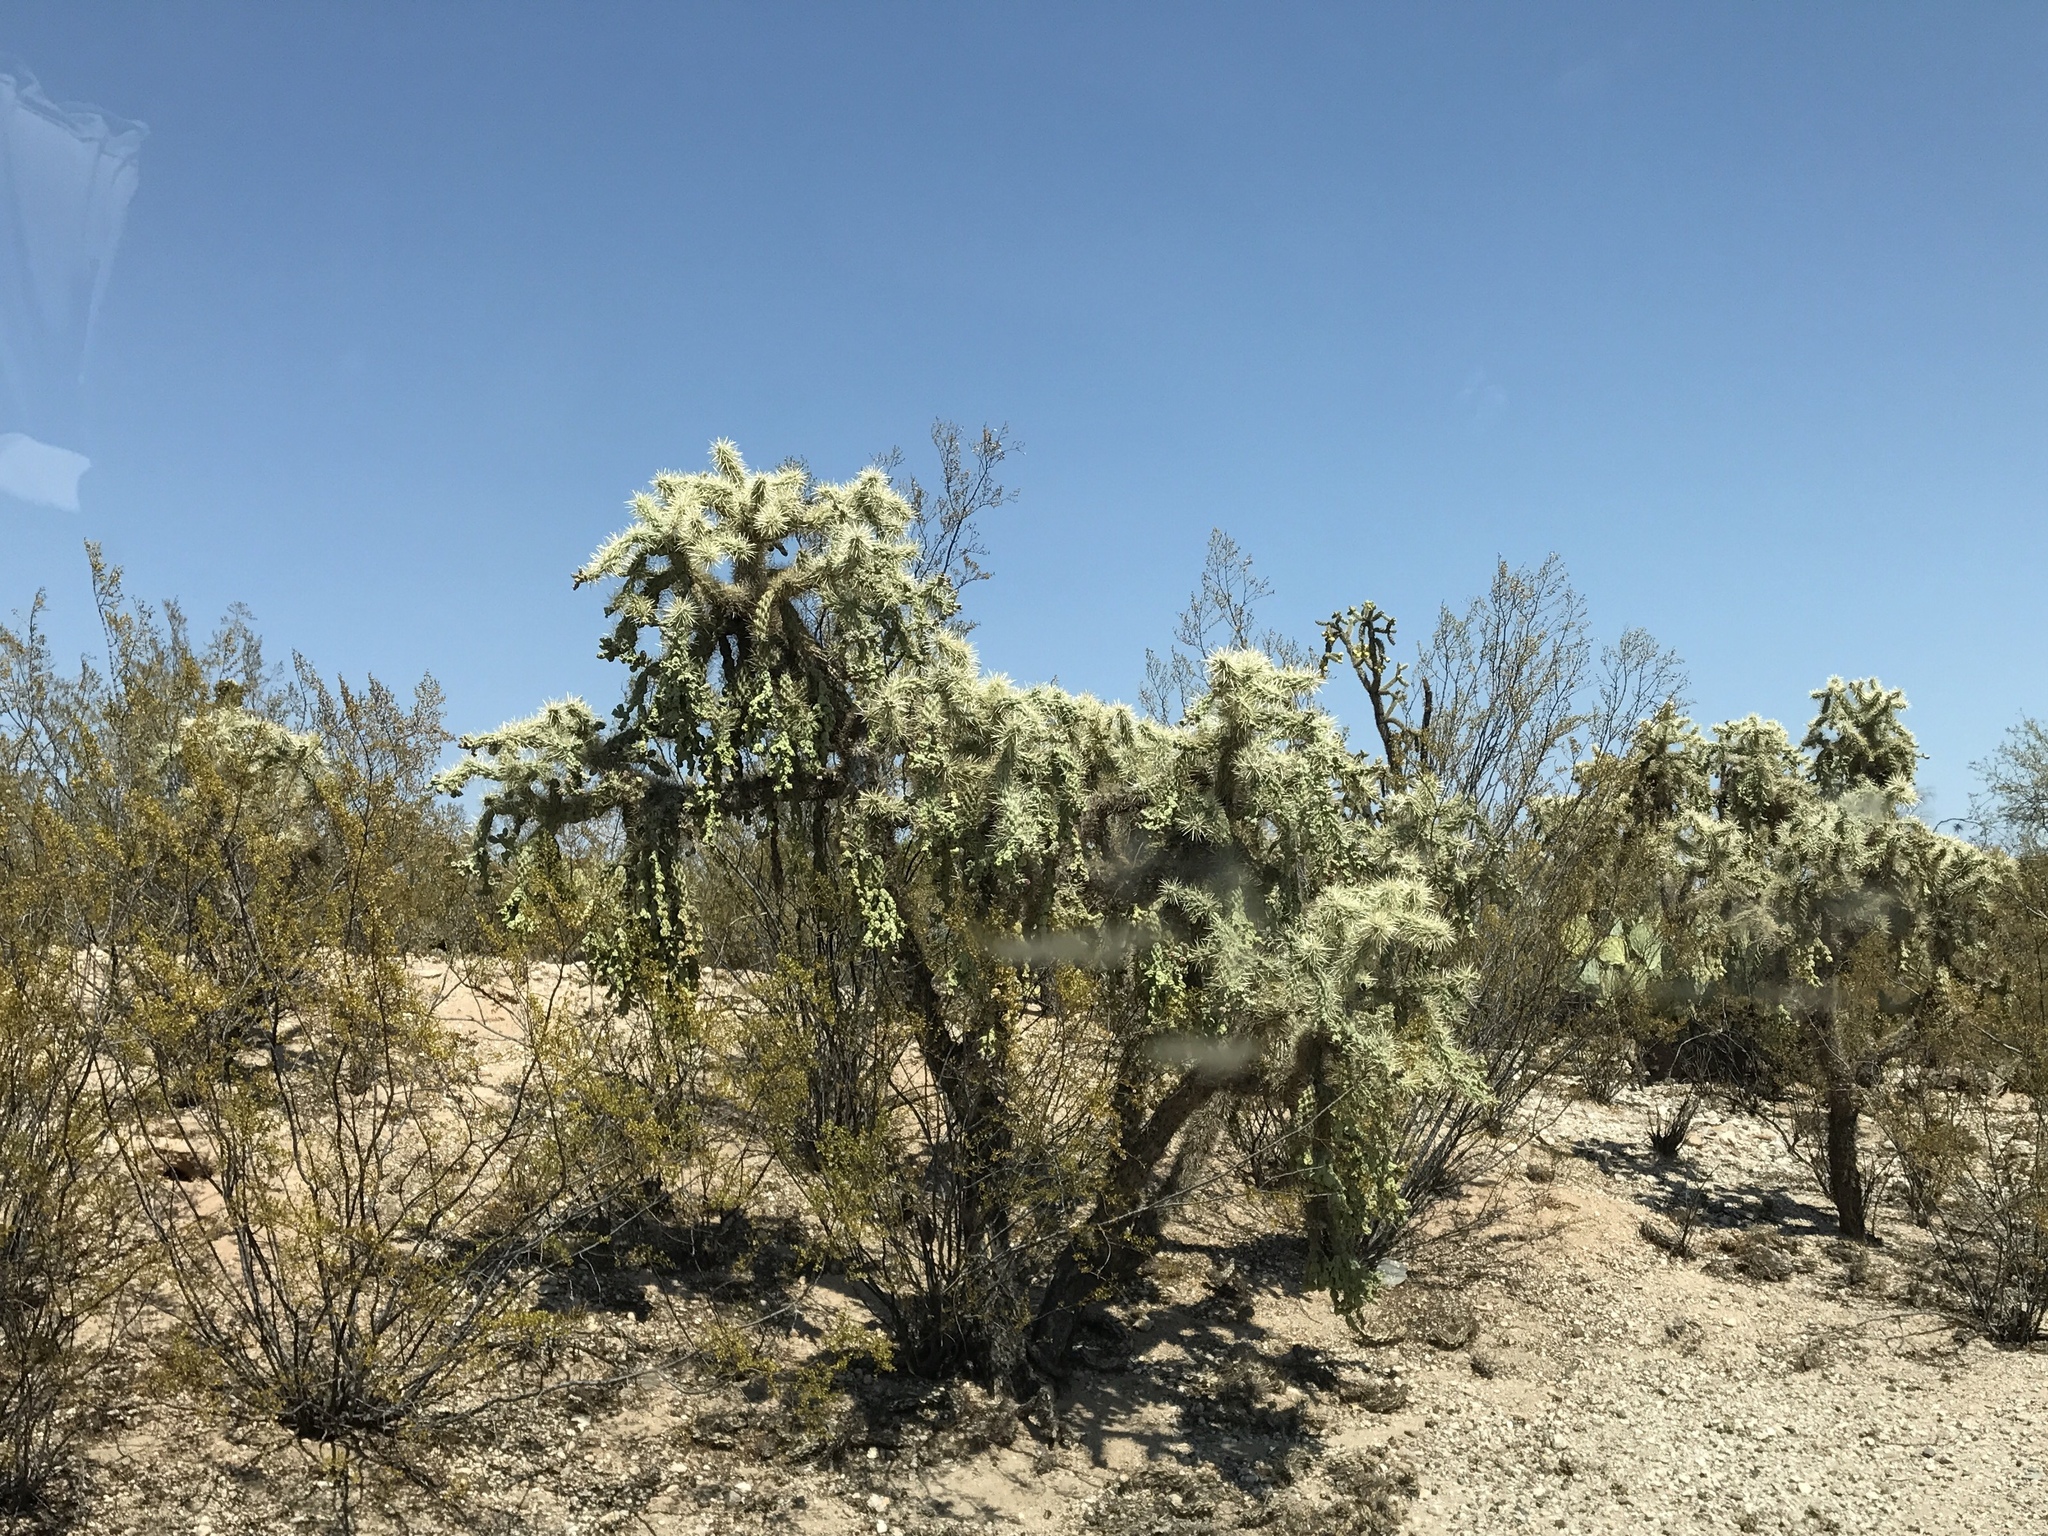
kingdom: Plantae
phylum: Tracheophyta
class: Magnoliopsida
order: Caryophyllales
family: Cactaceae
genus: Cylindropuntia
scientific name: Cylindropuntia fulgida
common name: Jumping cholla
